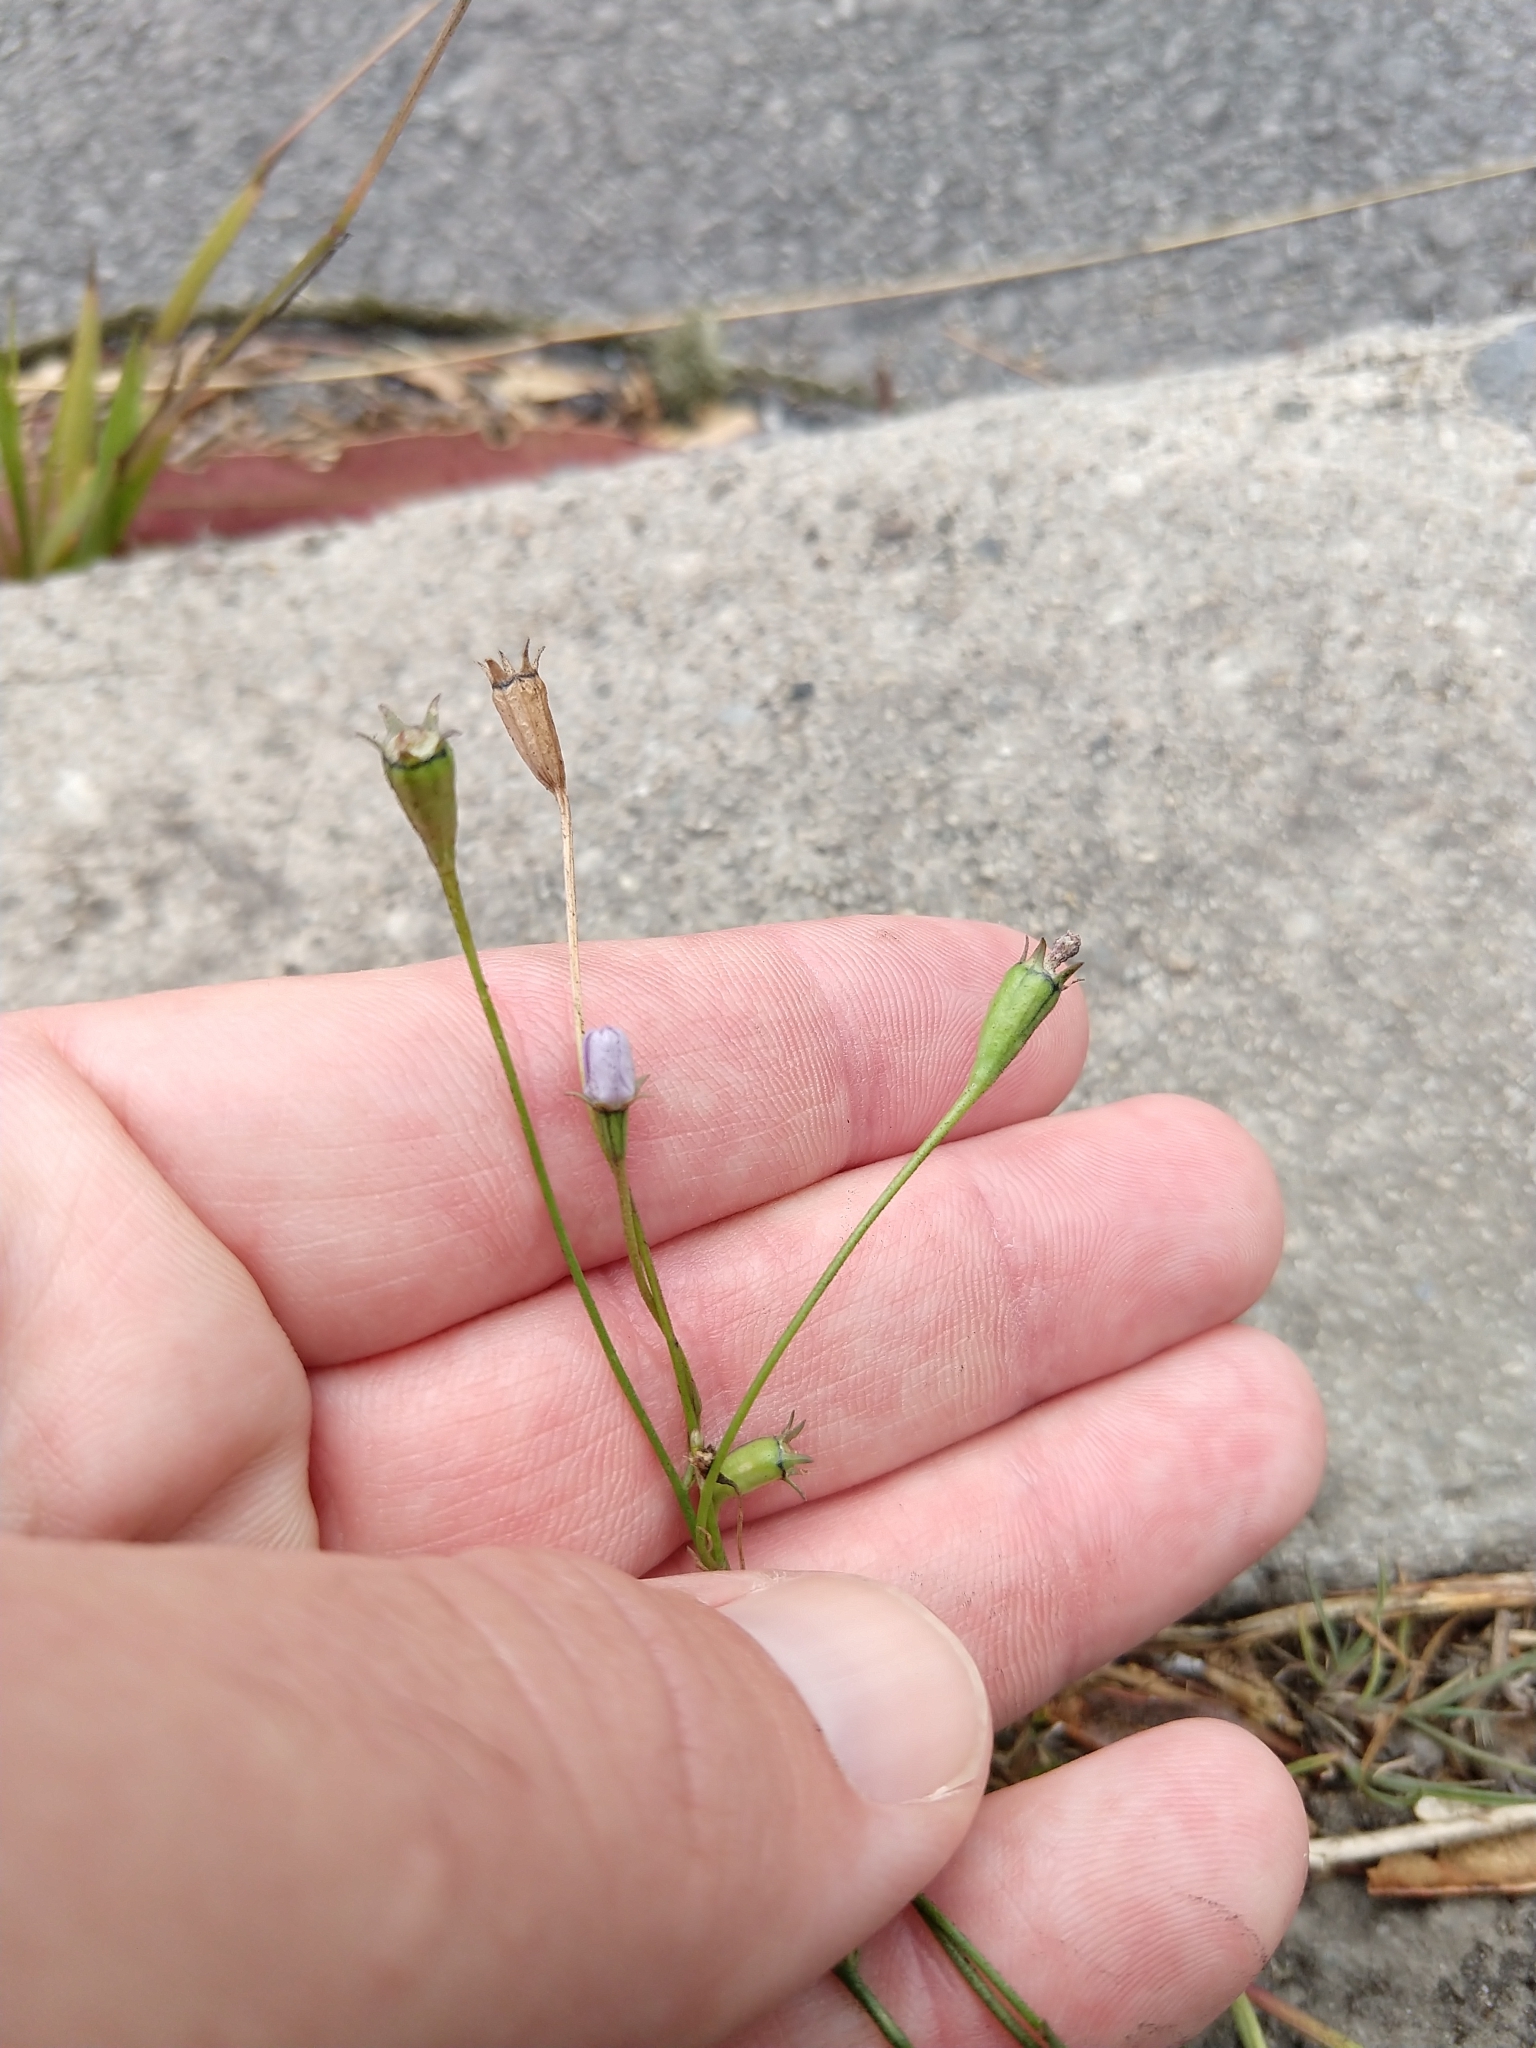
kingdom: Plantae
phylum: Tracheophyta
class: Magnoliopsida
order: Asterales
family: Campanulaceae
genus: Wahlenbergia
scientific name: Wahlenbergia marginata
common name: Southern rockbell
